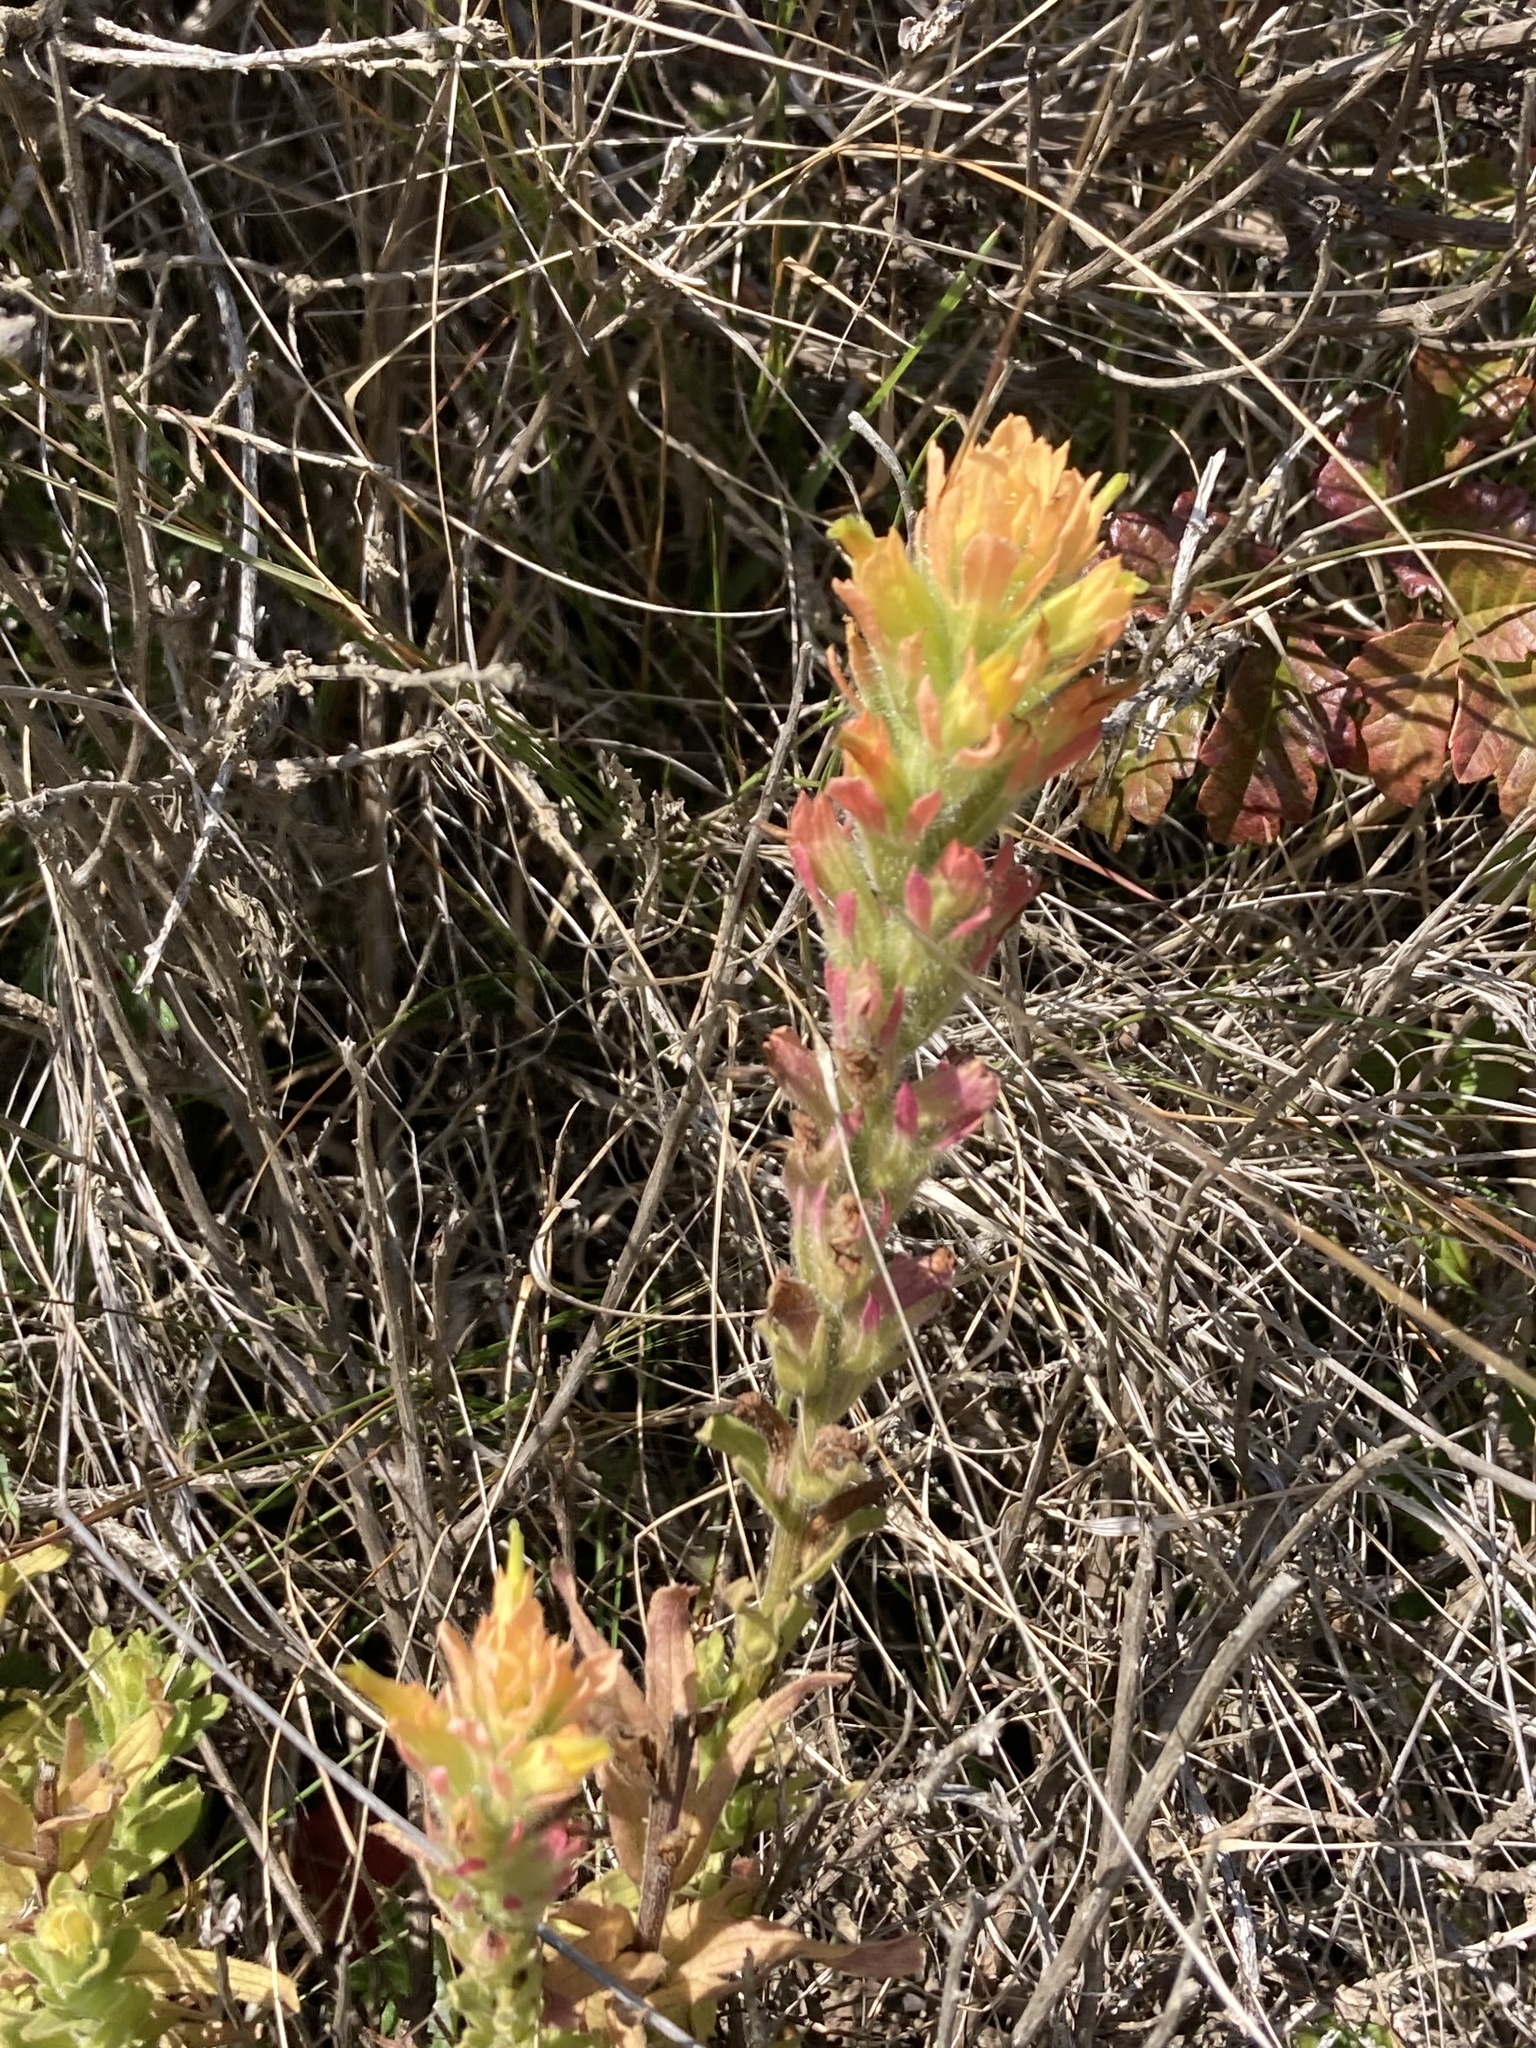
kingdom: Plantae
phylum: Tracheophyta
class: Magnoliopsida
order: Lamiales
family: Orobanchaceae
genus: Castilleja
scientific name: Castilleja wightii
